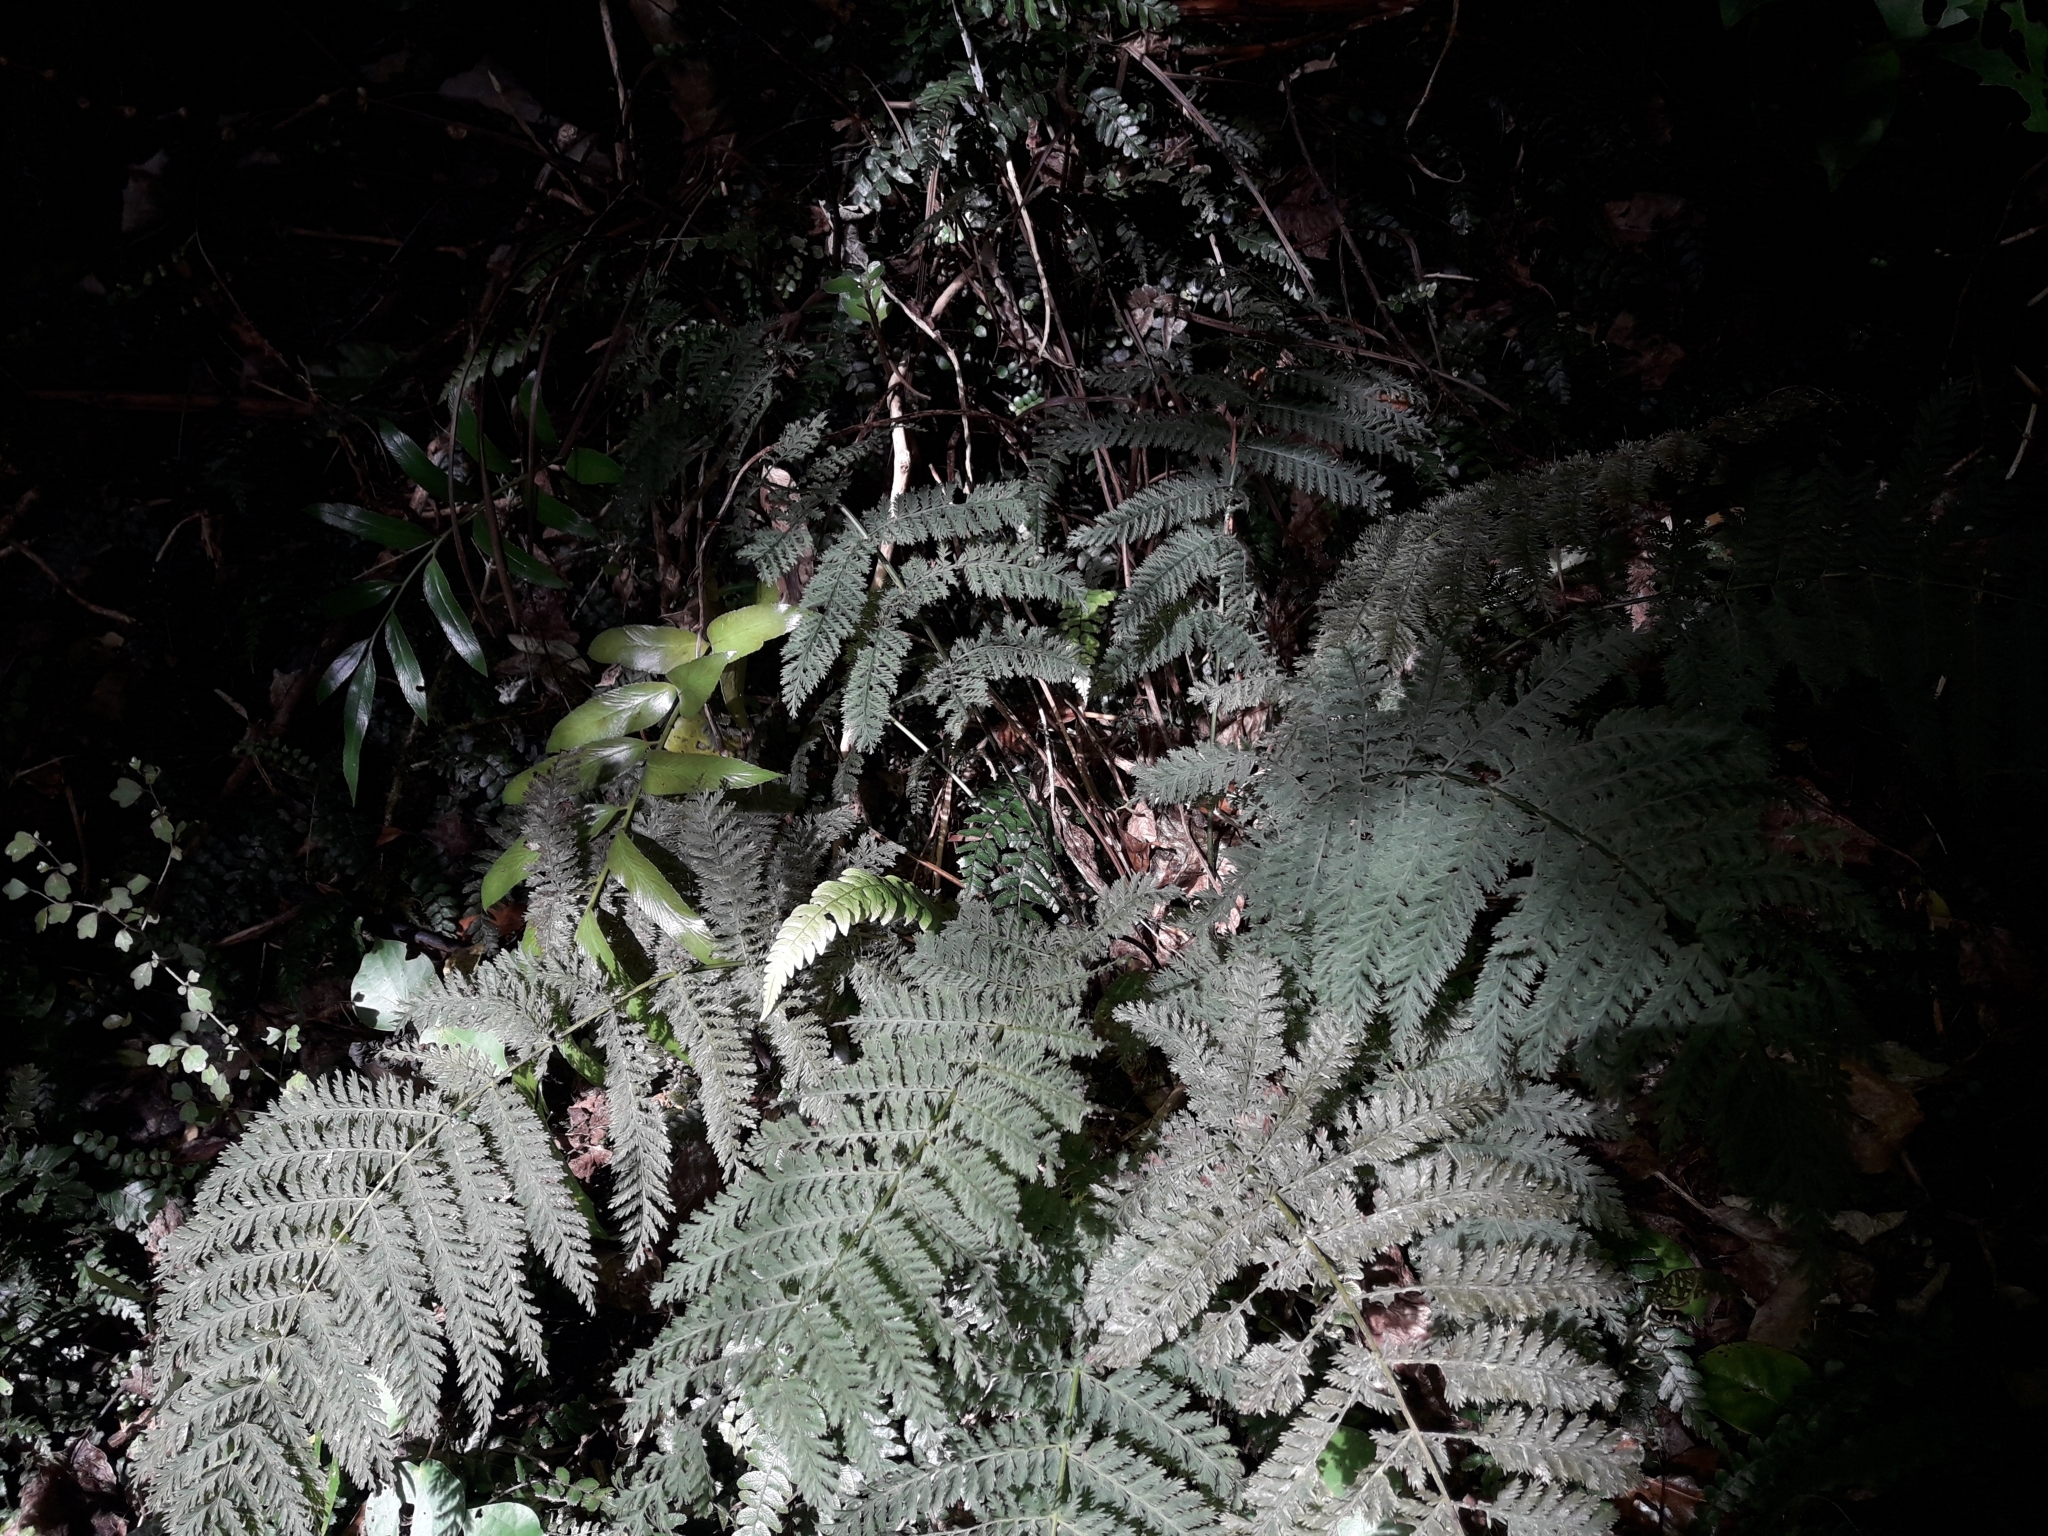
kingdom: Plantae
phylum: Tracheophyta
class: Polypodiopsida
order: Osmundales
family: Osmundaceae
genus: Leptopteris
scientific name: Leptopteris hymenophylloides
